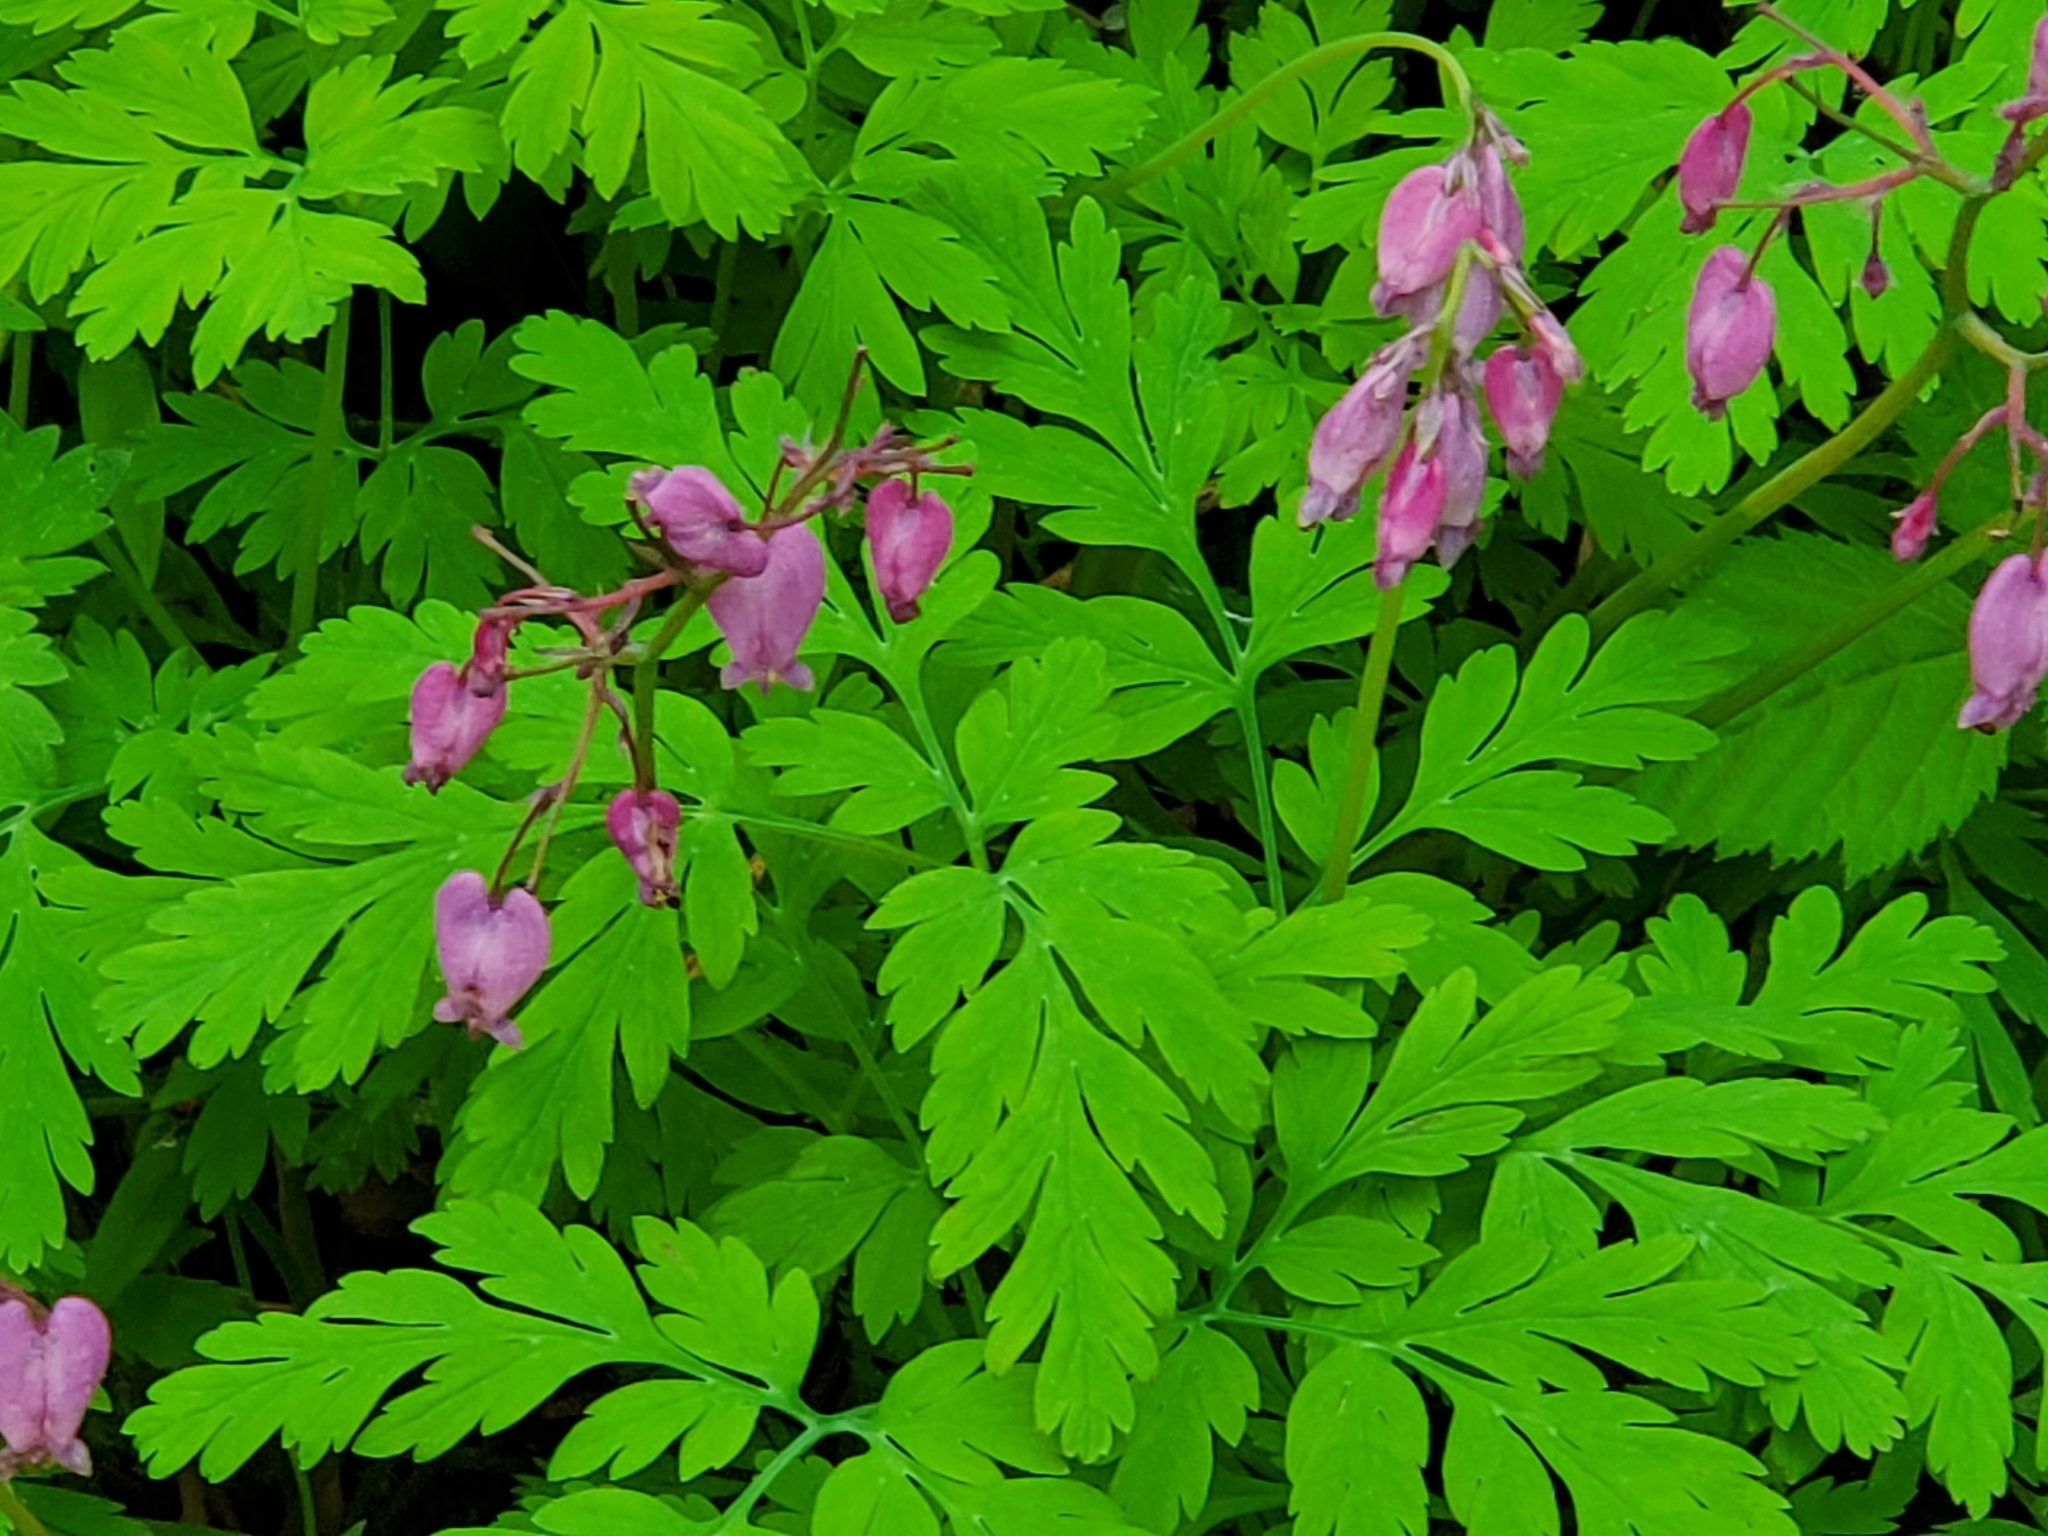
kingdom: Plantae
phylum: Tracheophyta
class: Magnoliopsida
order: Ranunculales
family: Papaveraceae
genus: Dicentra
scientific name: Dicentra formosa
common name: Bleeding-heart
